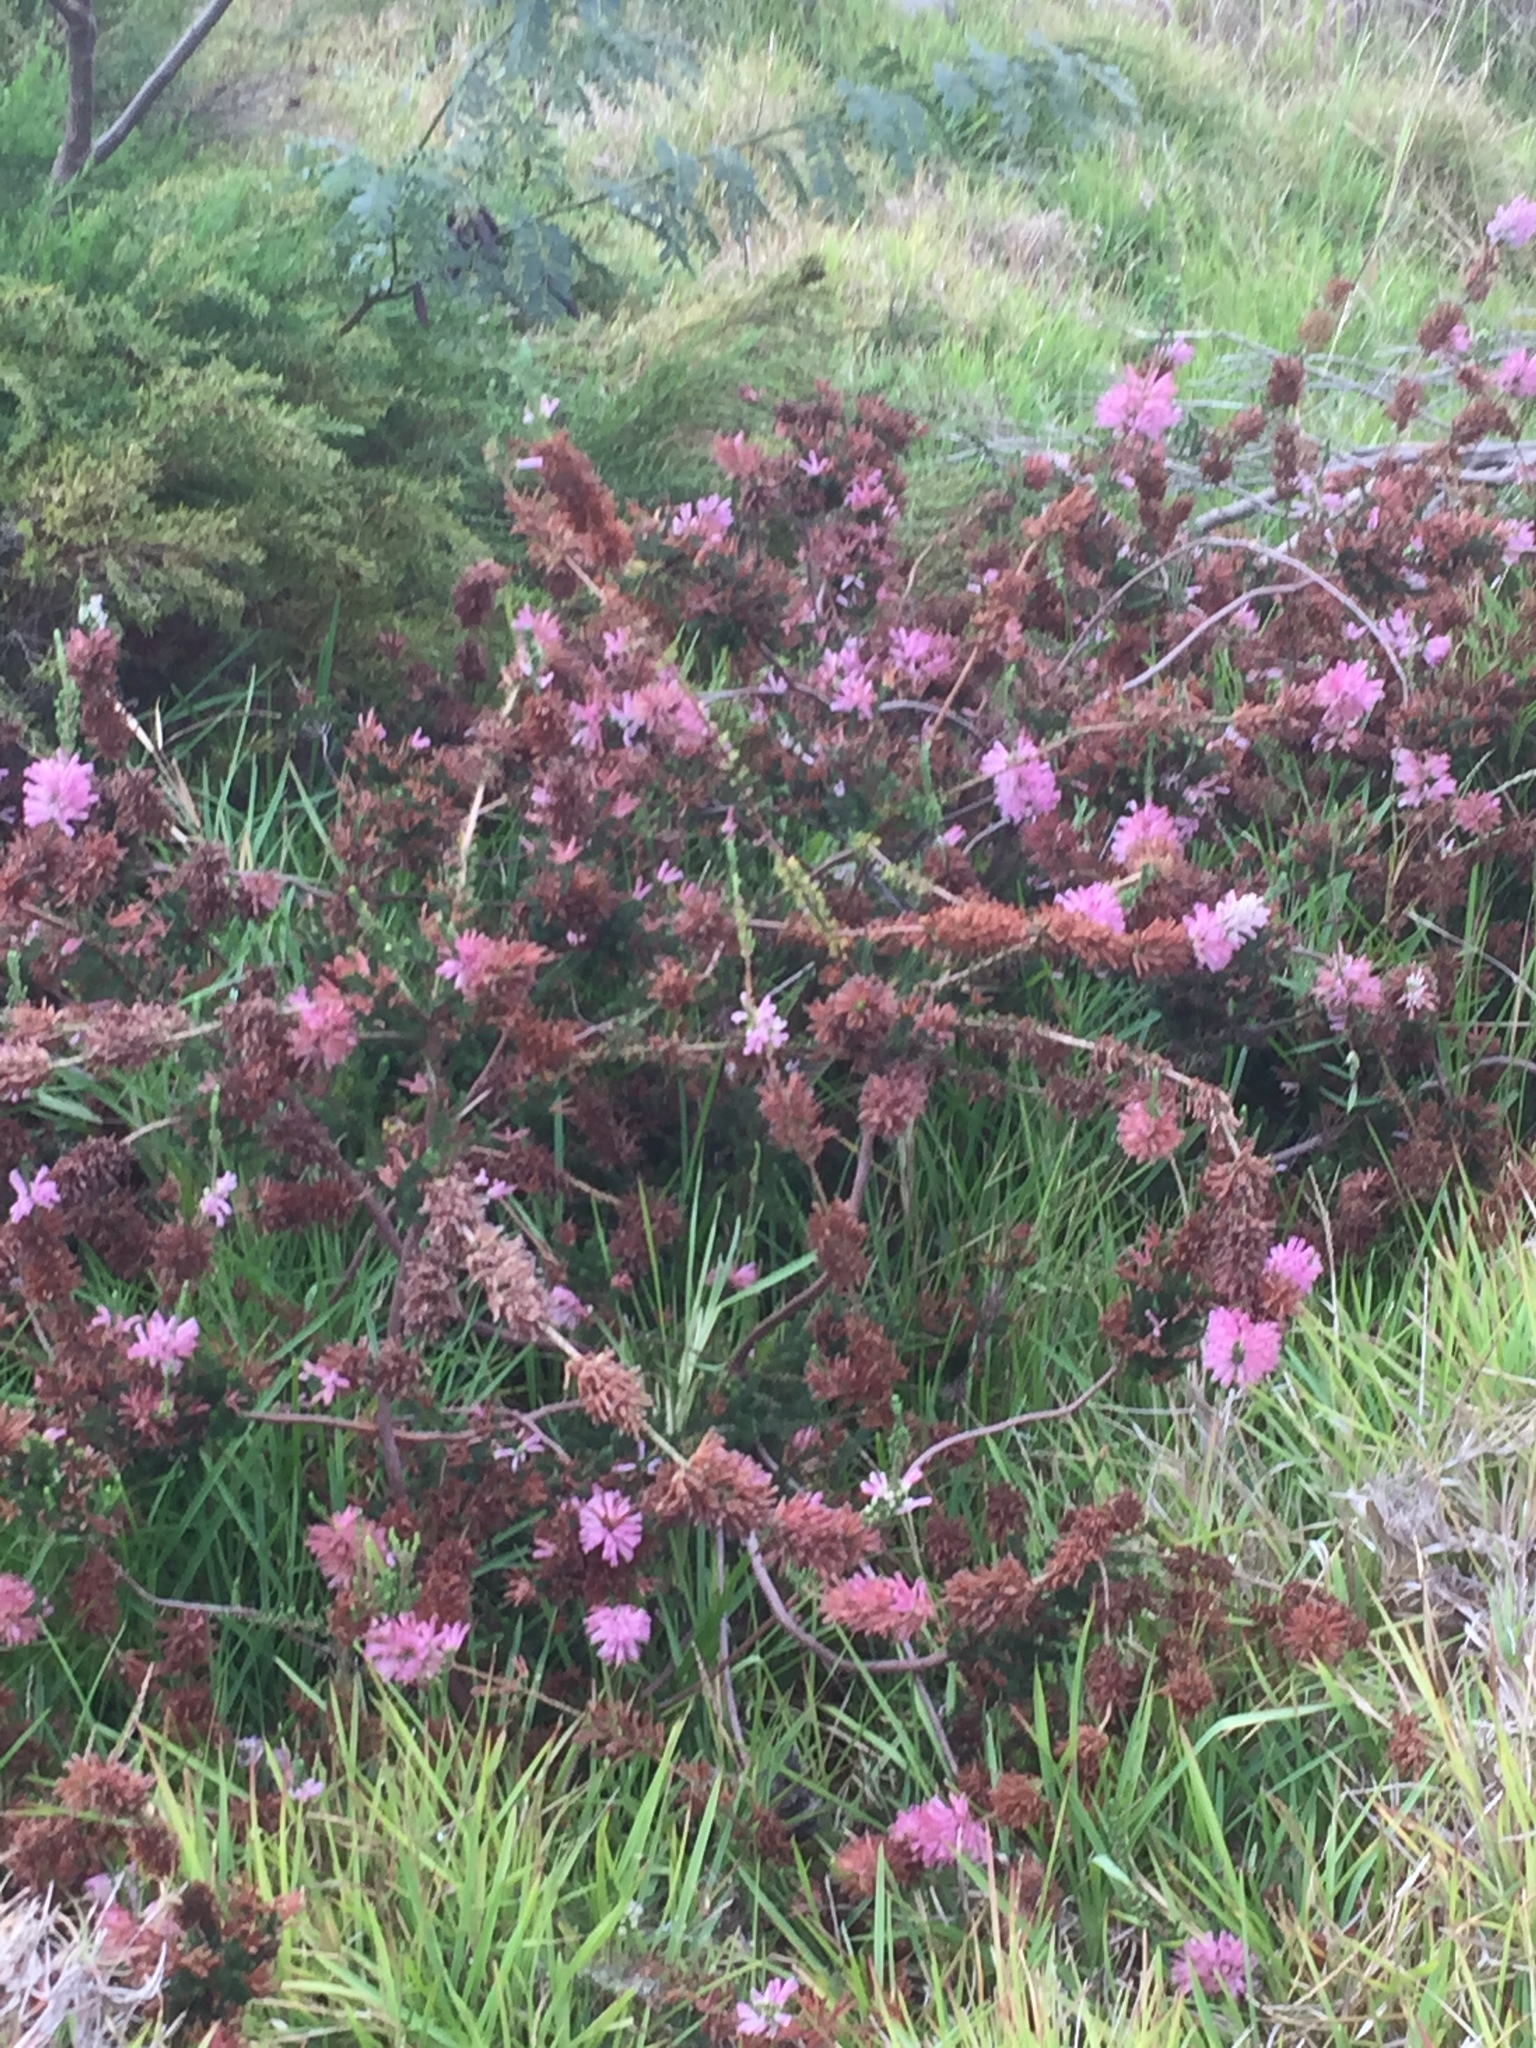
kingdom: Plantae
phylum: Tracheophyta
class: Magnoliopsida
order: Ericales
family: Ericaceae
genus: Erica
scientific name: Erica verticillata
